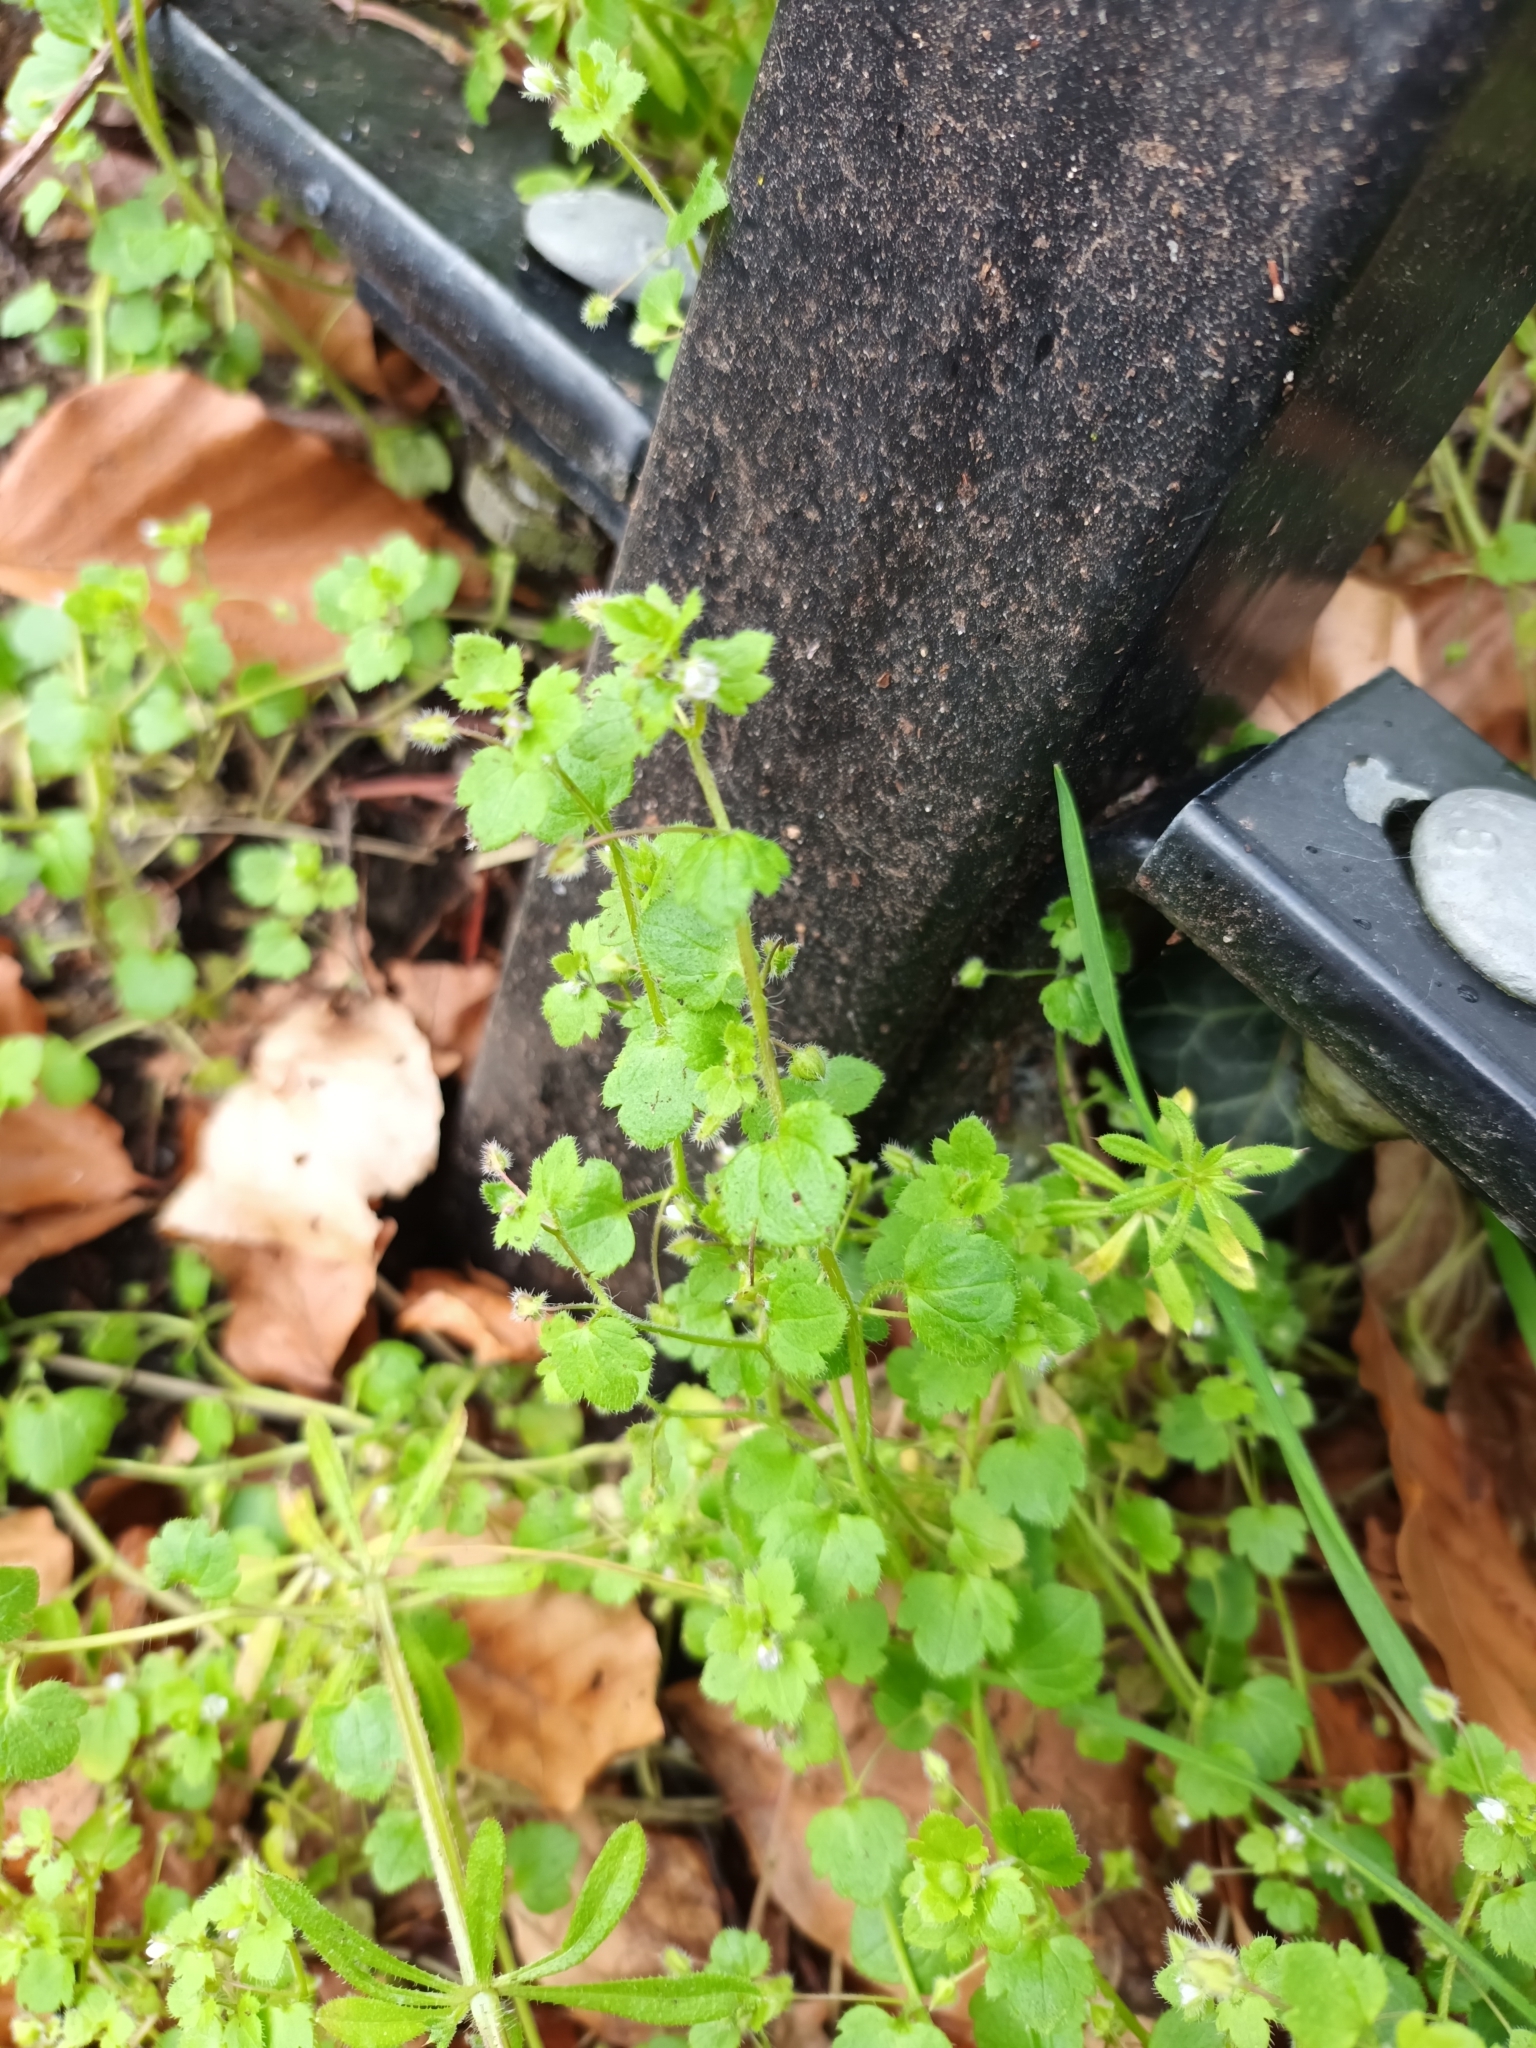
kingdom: Plantae
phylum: Tracheophyta
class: Magnoliopsida
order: Lamiales
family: Plantaginaceae
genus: Veronica
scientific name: Veronica sublobata
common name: False ivy-leaved speedwell
